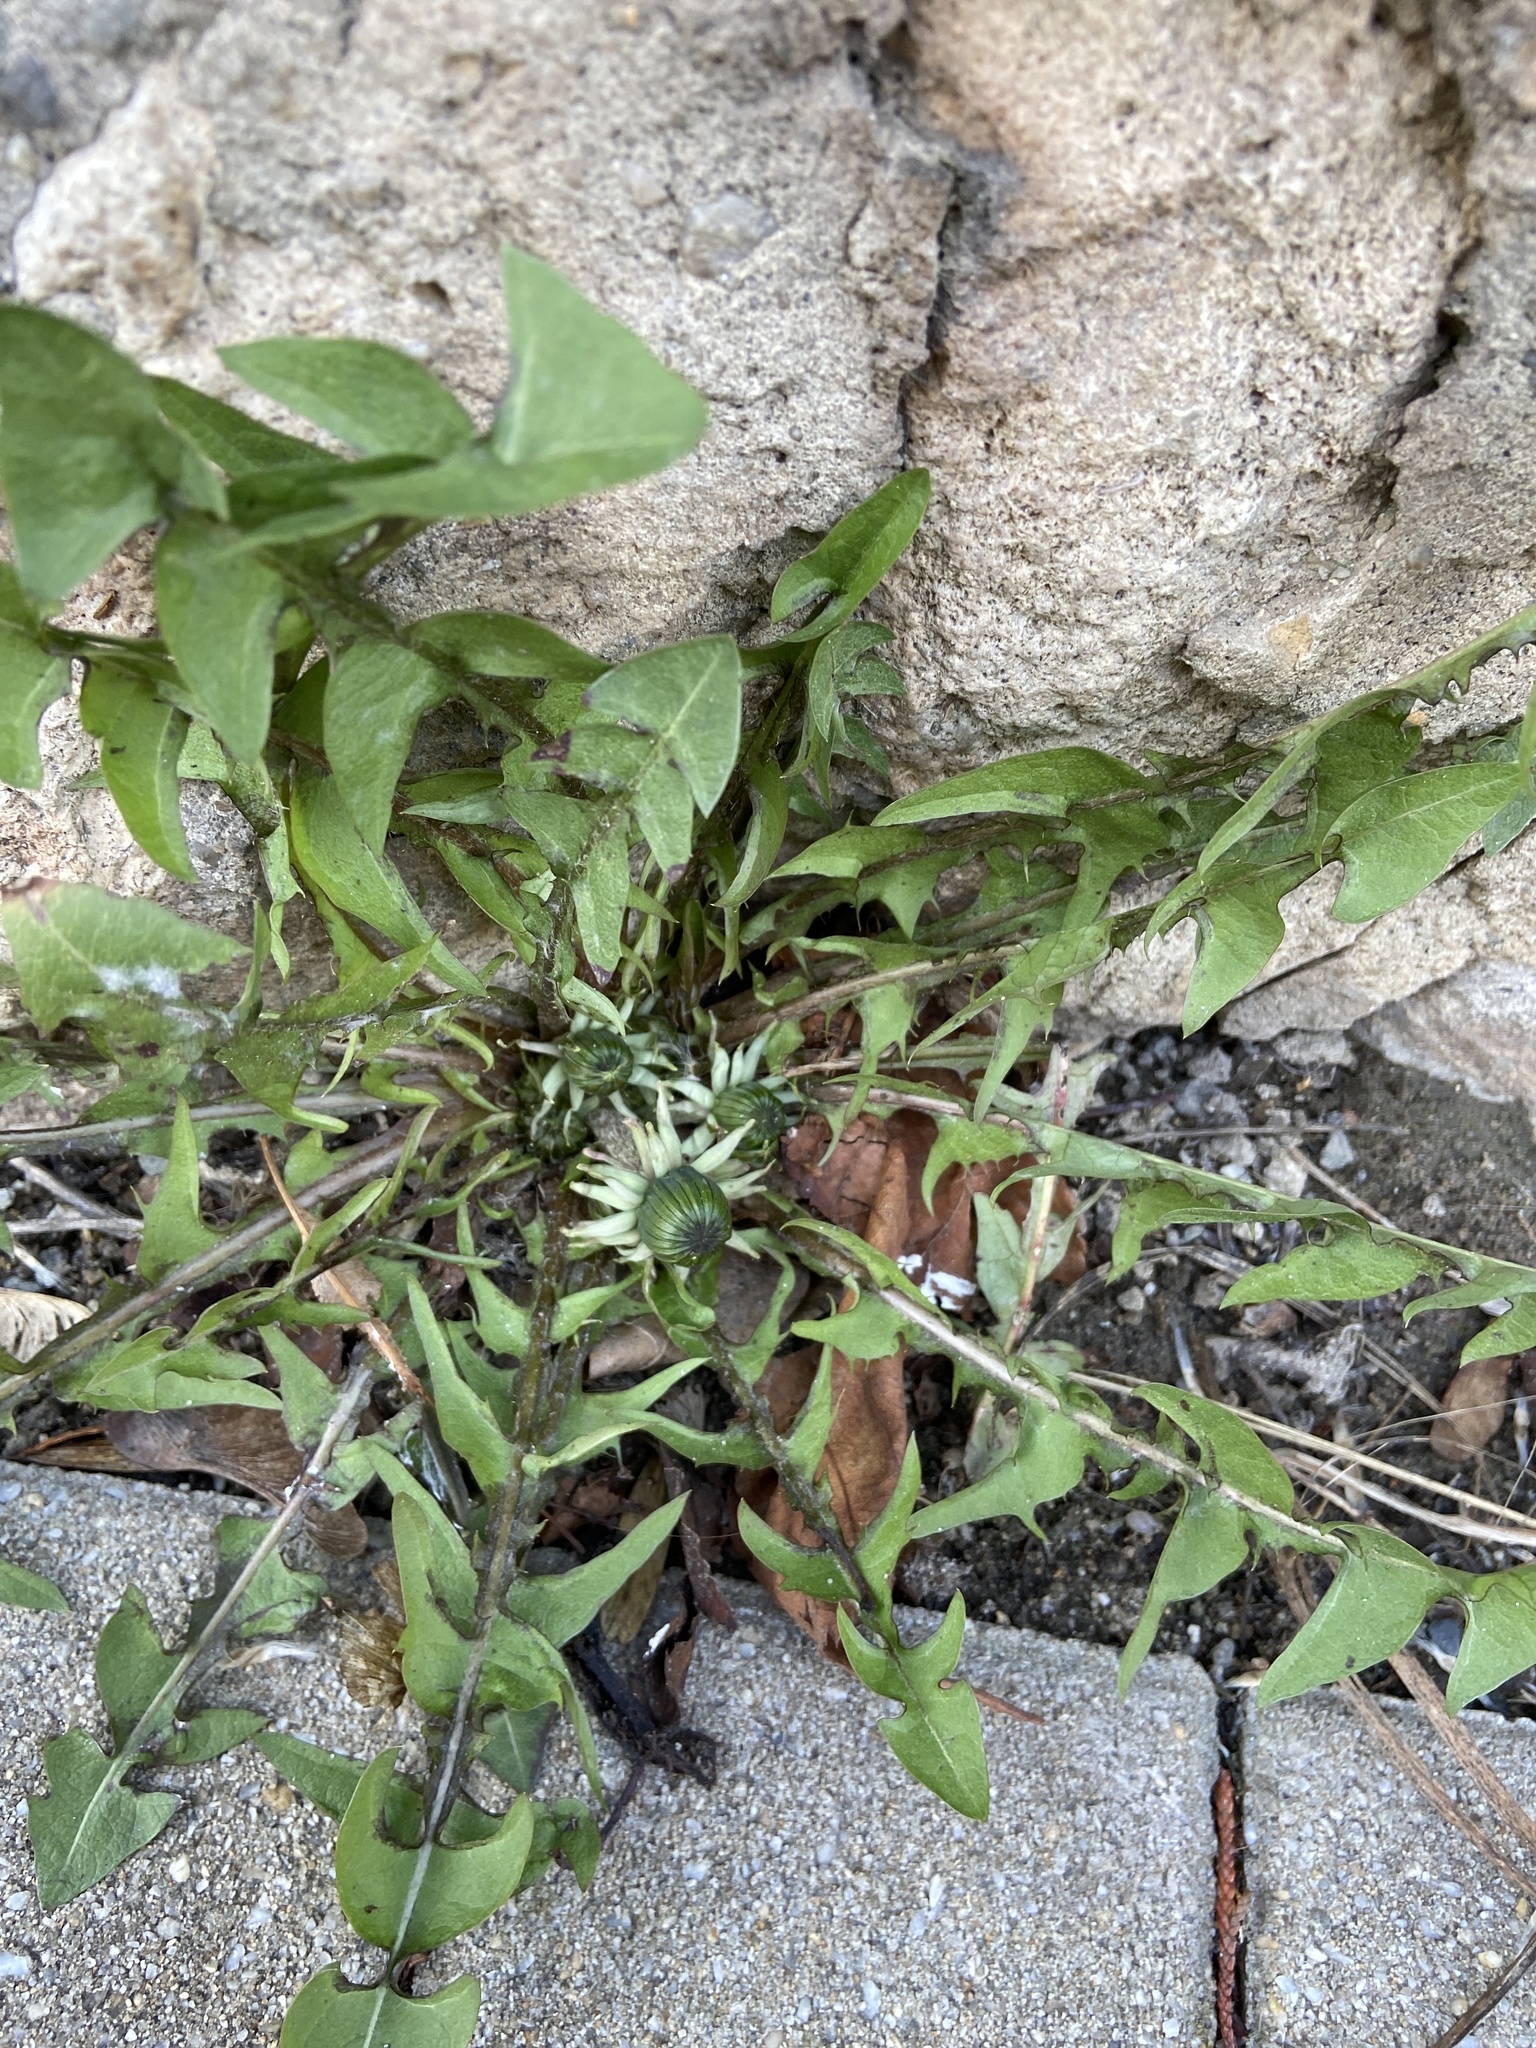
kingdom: Plantae
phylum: Tracheophyta
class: Magnoliopsida
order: Asterales
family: Asteraceae
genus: Taraxacum
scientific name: Taraxacum officinale
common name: Common dandelion
